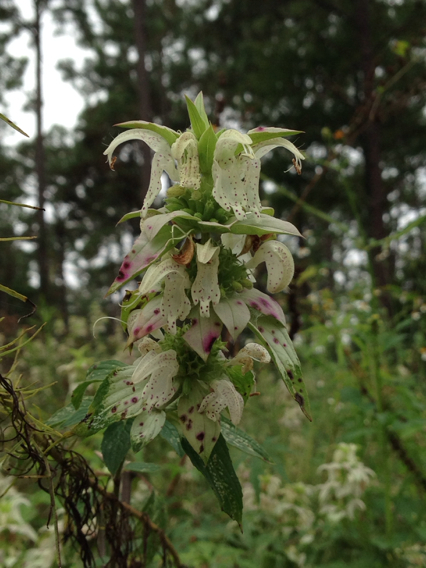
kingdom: Plantae
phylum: Tracheophyta
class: Magnoliopsida
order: Lamiales
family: Lamiaceae
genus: Monarda
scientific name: Monarda punctata
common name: Dotted monarda
